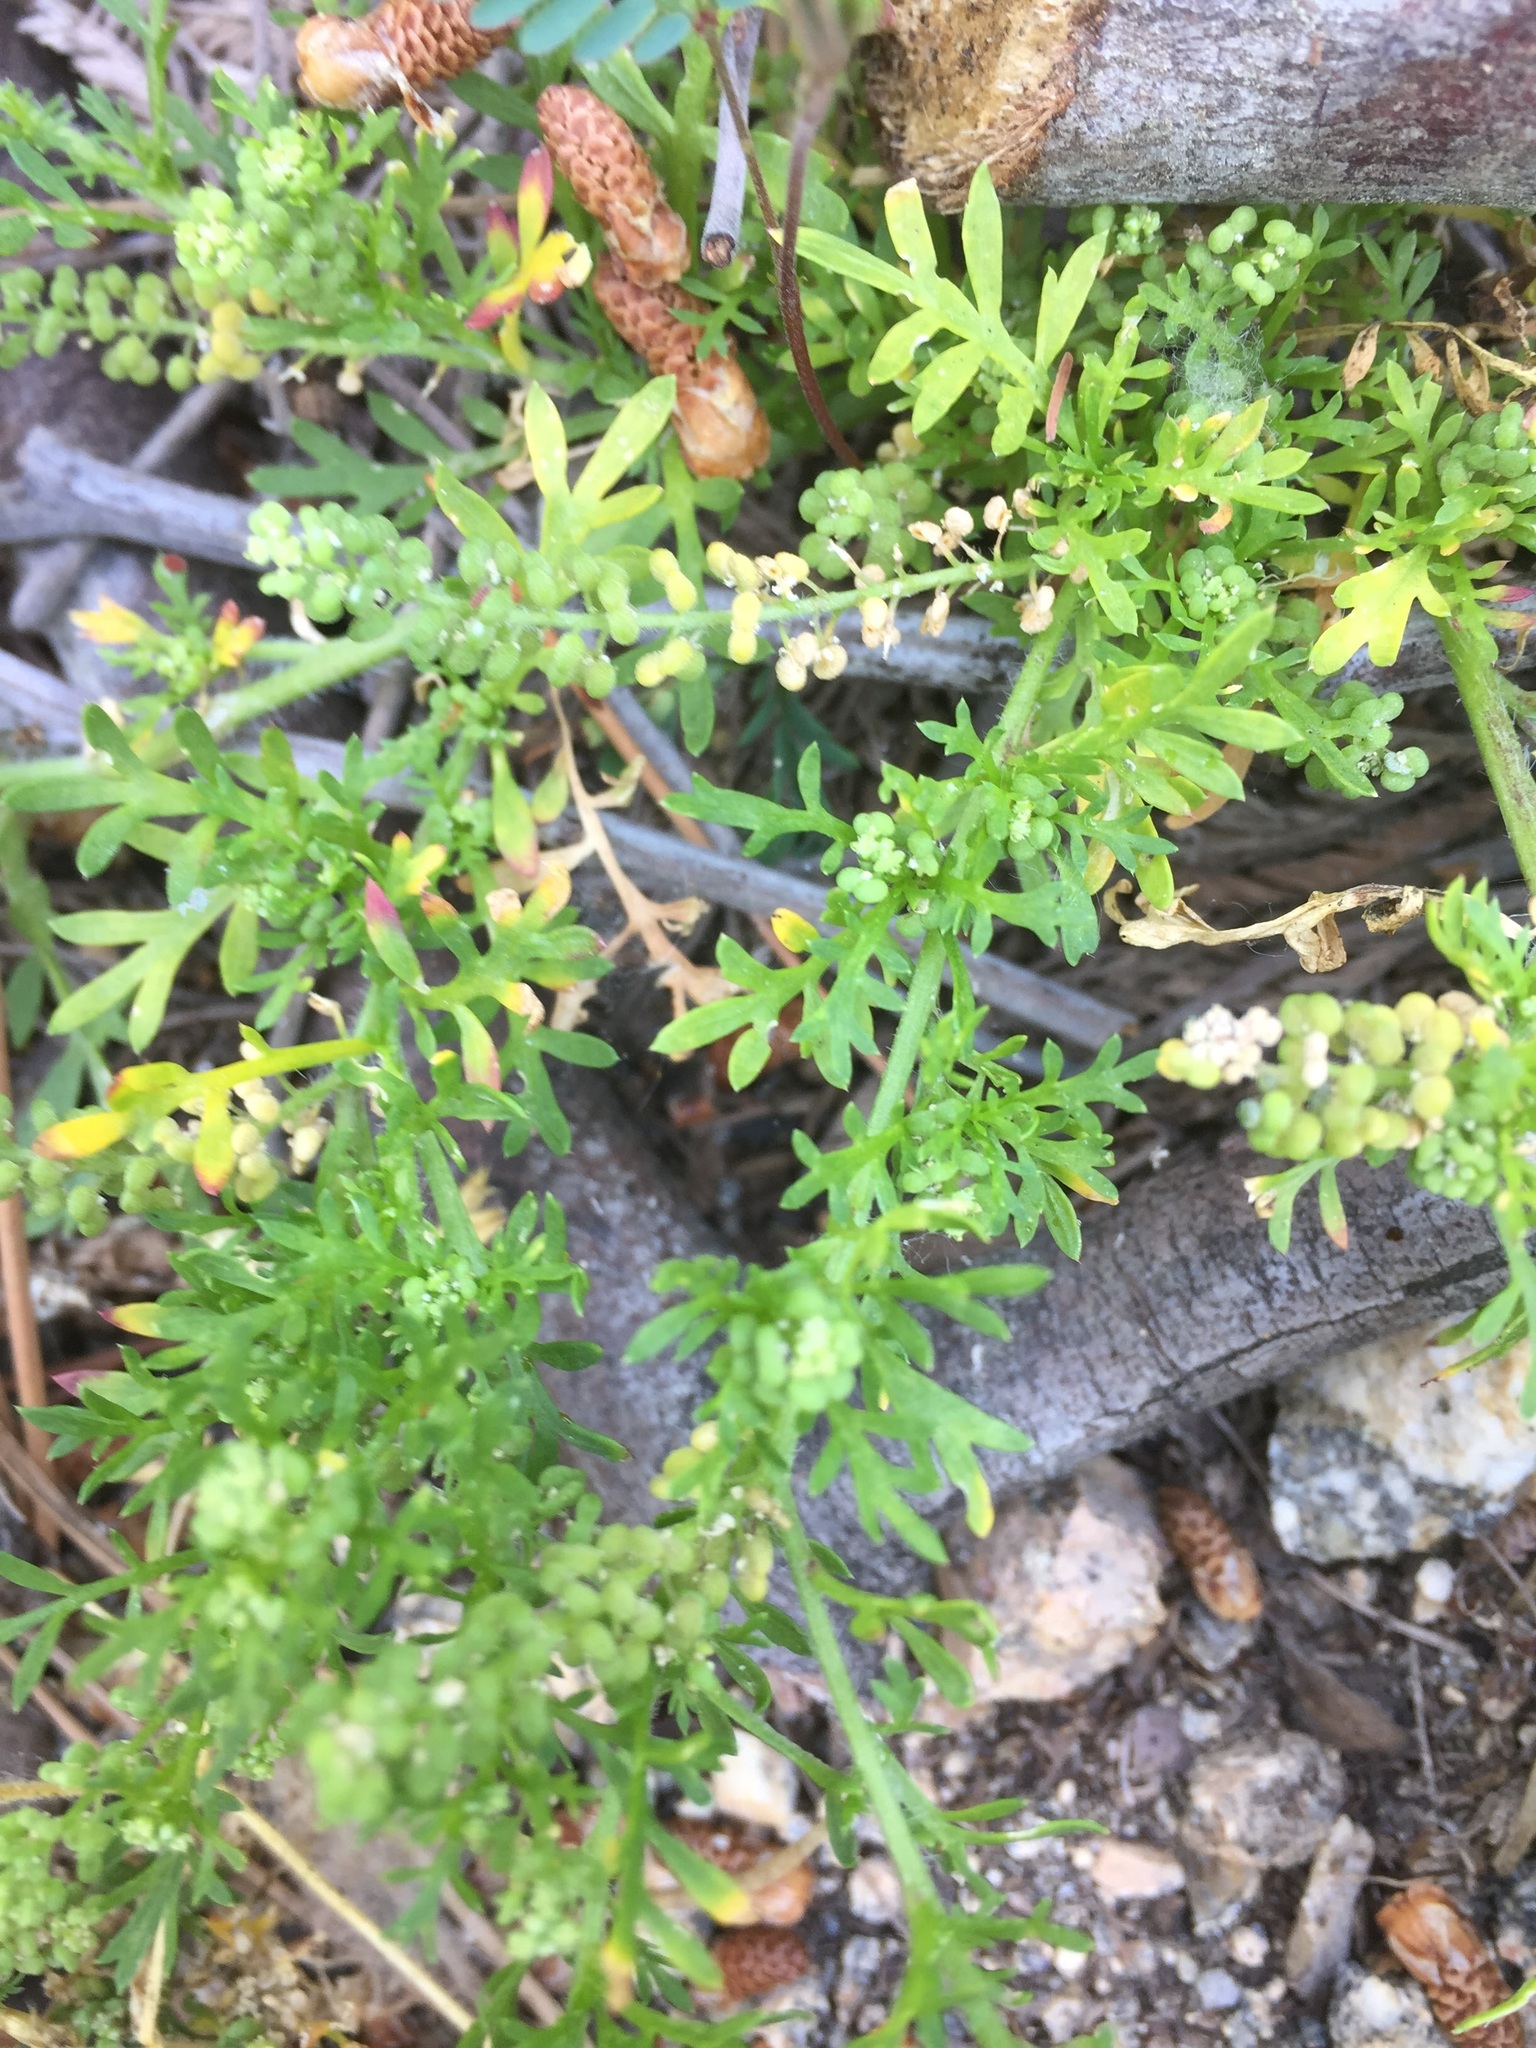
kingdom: Plantae
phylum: Tracheophyta
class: Magnoliopsida
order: Brassicales
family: Brassicaceae
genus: Lepidium
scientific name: Lepidium didymum
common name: Lesser swinecress
